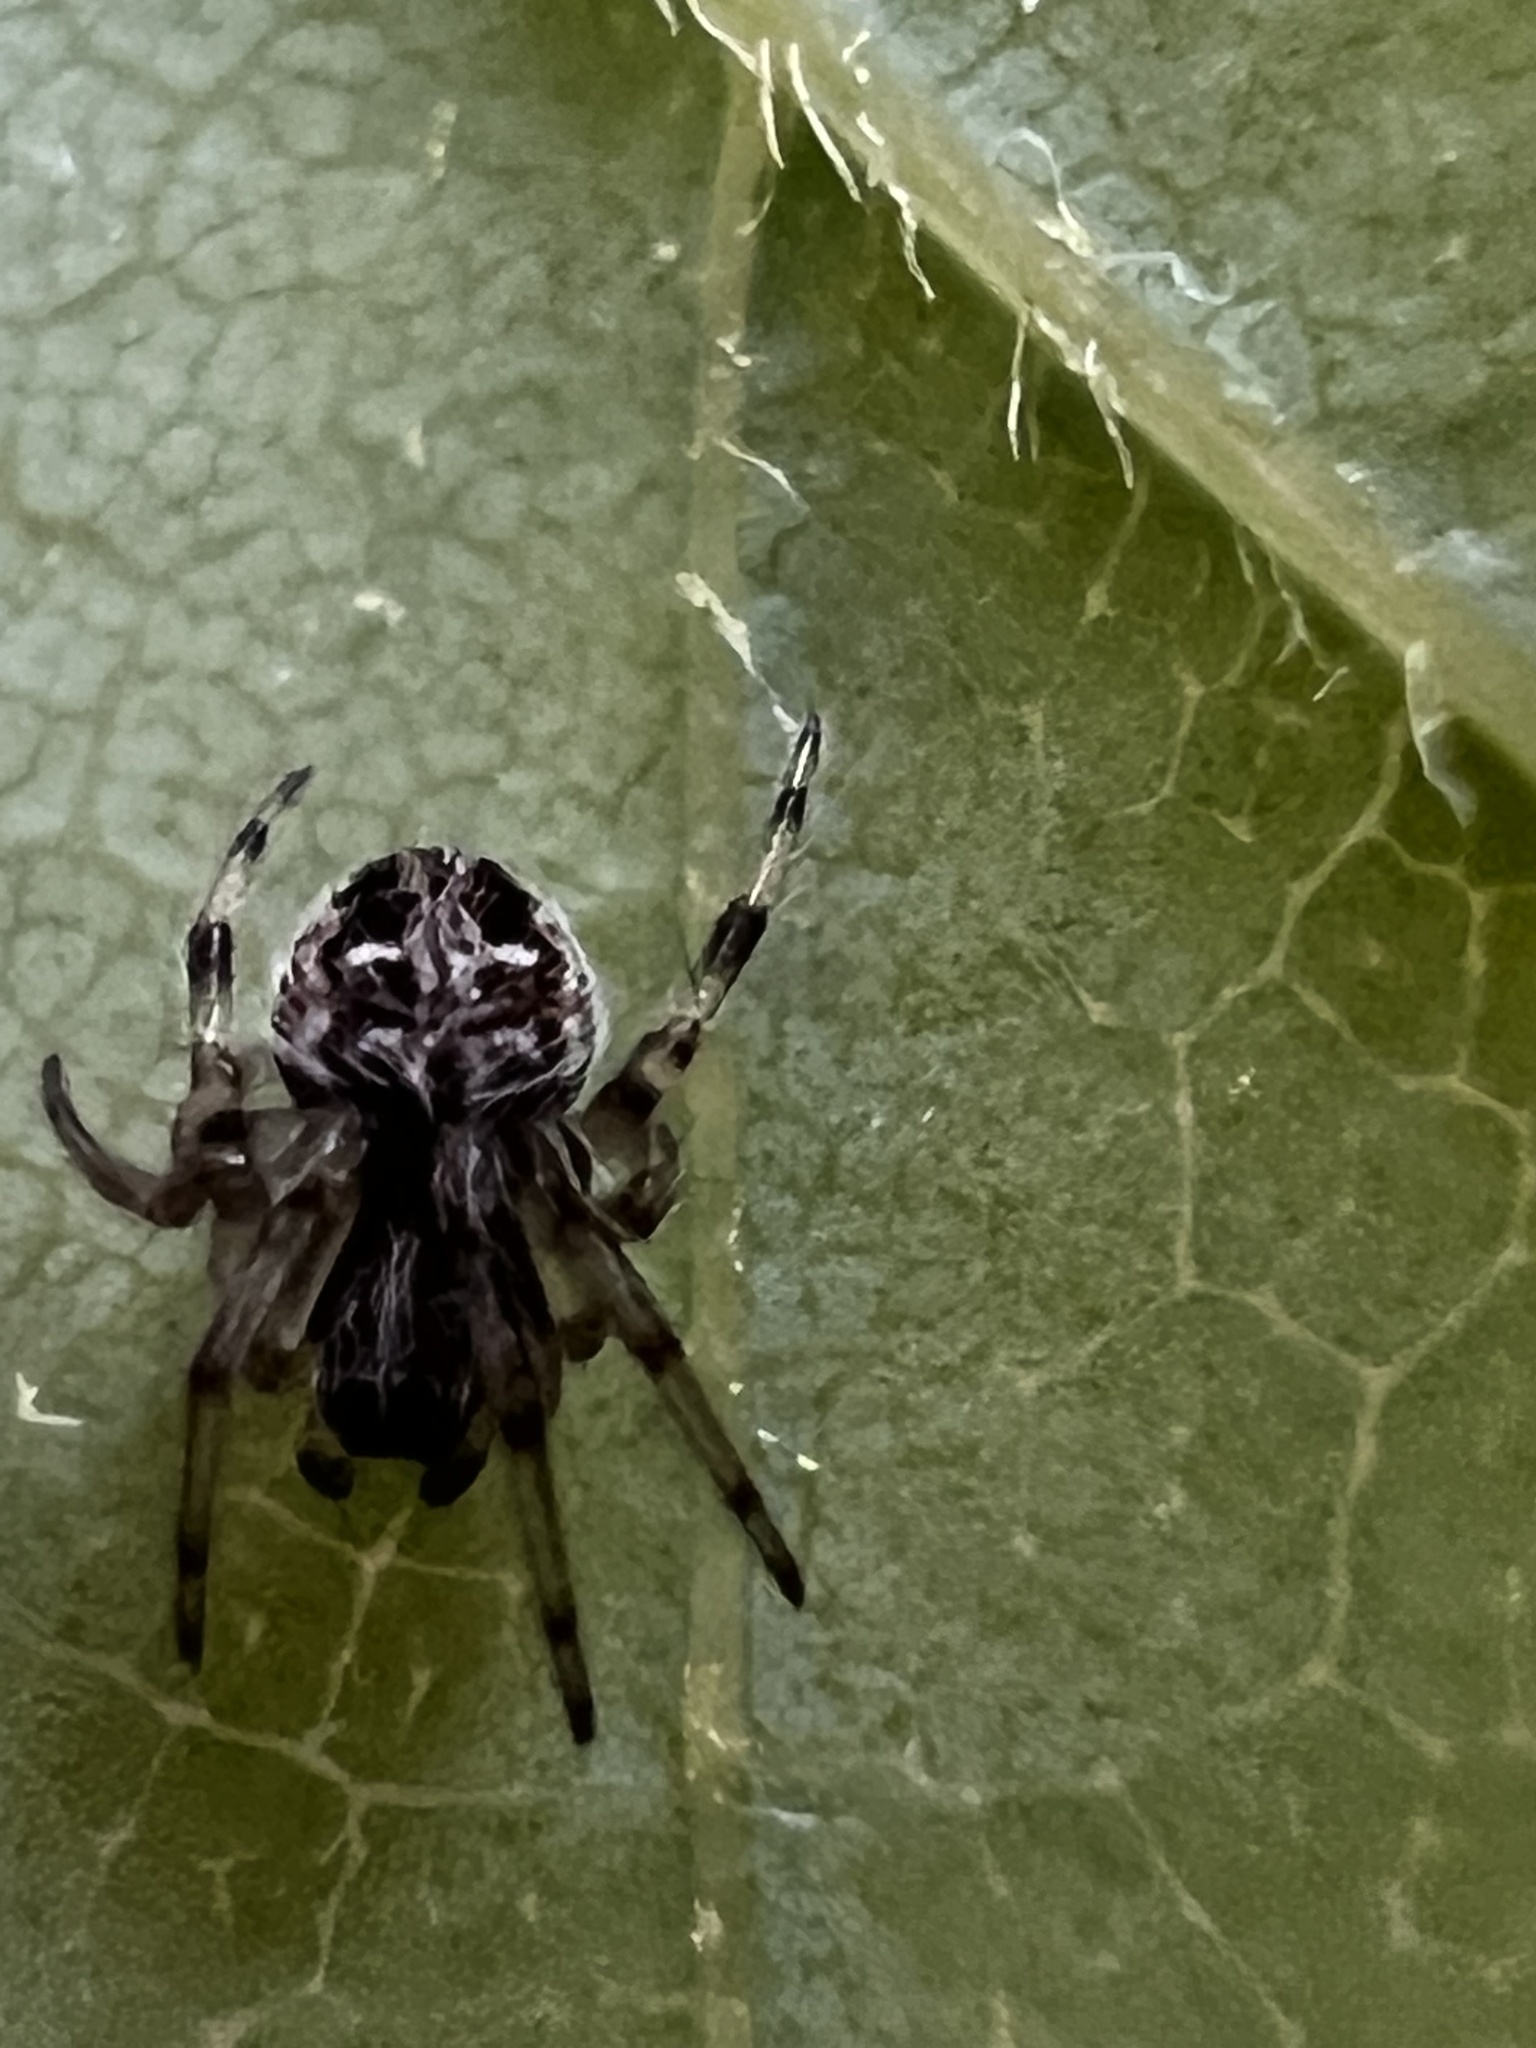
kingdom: Animalia
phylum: Arthropoda
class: Arachnida
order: Araneae
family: Araneidae
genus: Metepeira
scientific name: Metepeira labyrinthea
